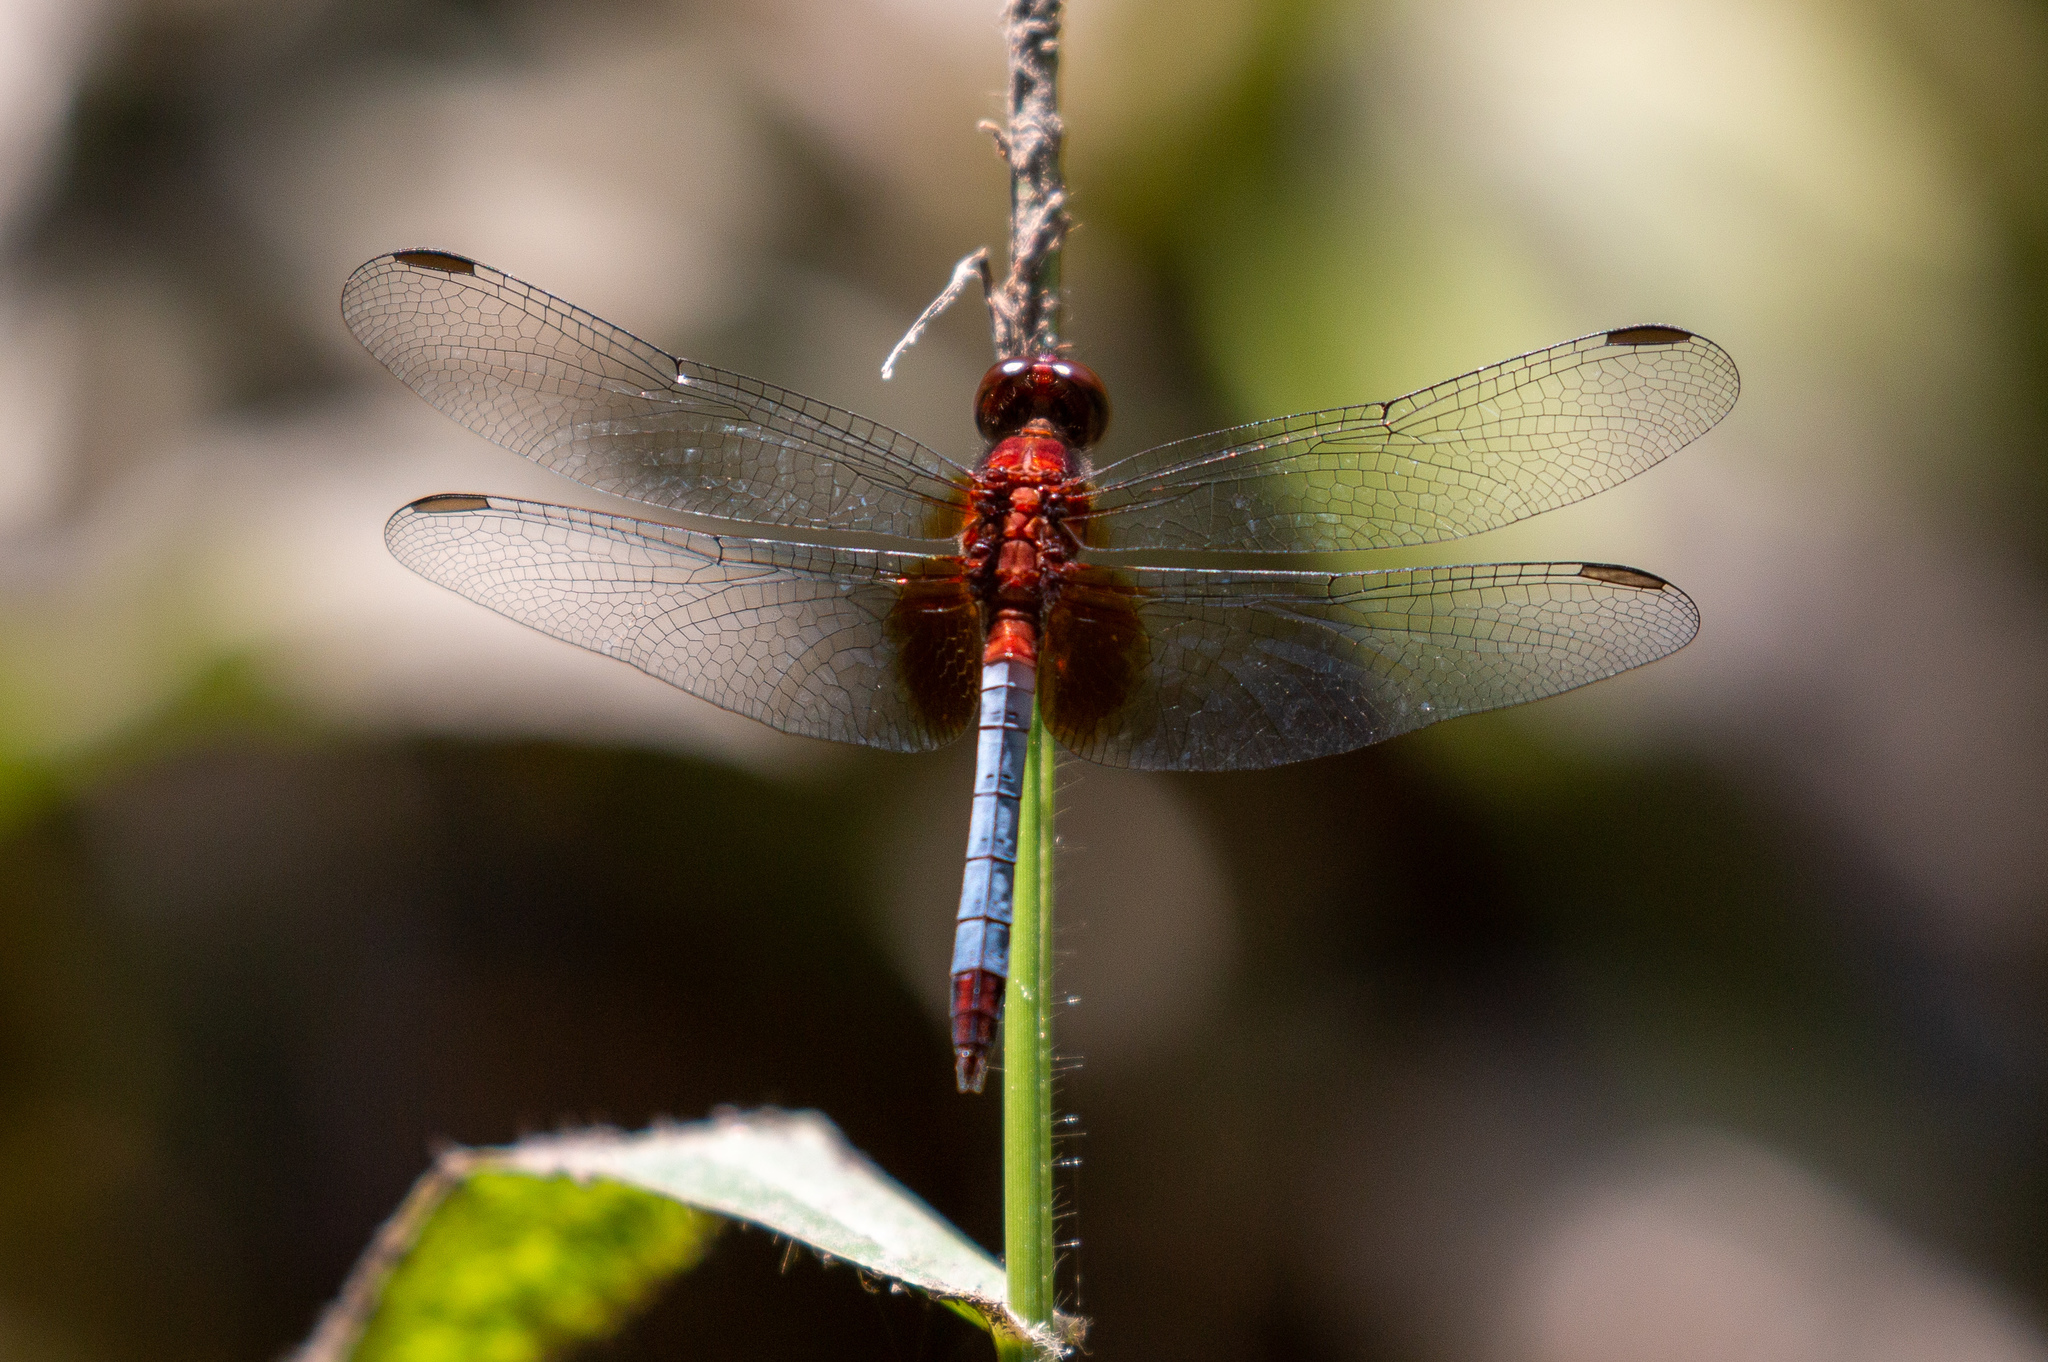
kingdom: Animalia
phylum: Arthropoda
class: Insecta
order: Odonata
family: Libellulidae
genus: Erythrodiplax
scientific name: Erythrodiplax fusca
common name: Red-faced dragonlet
